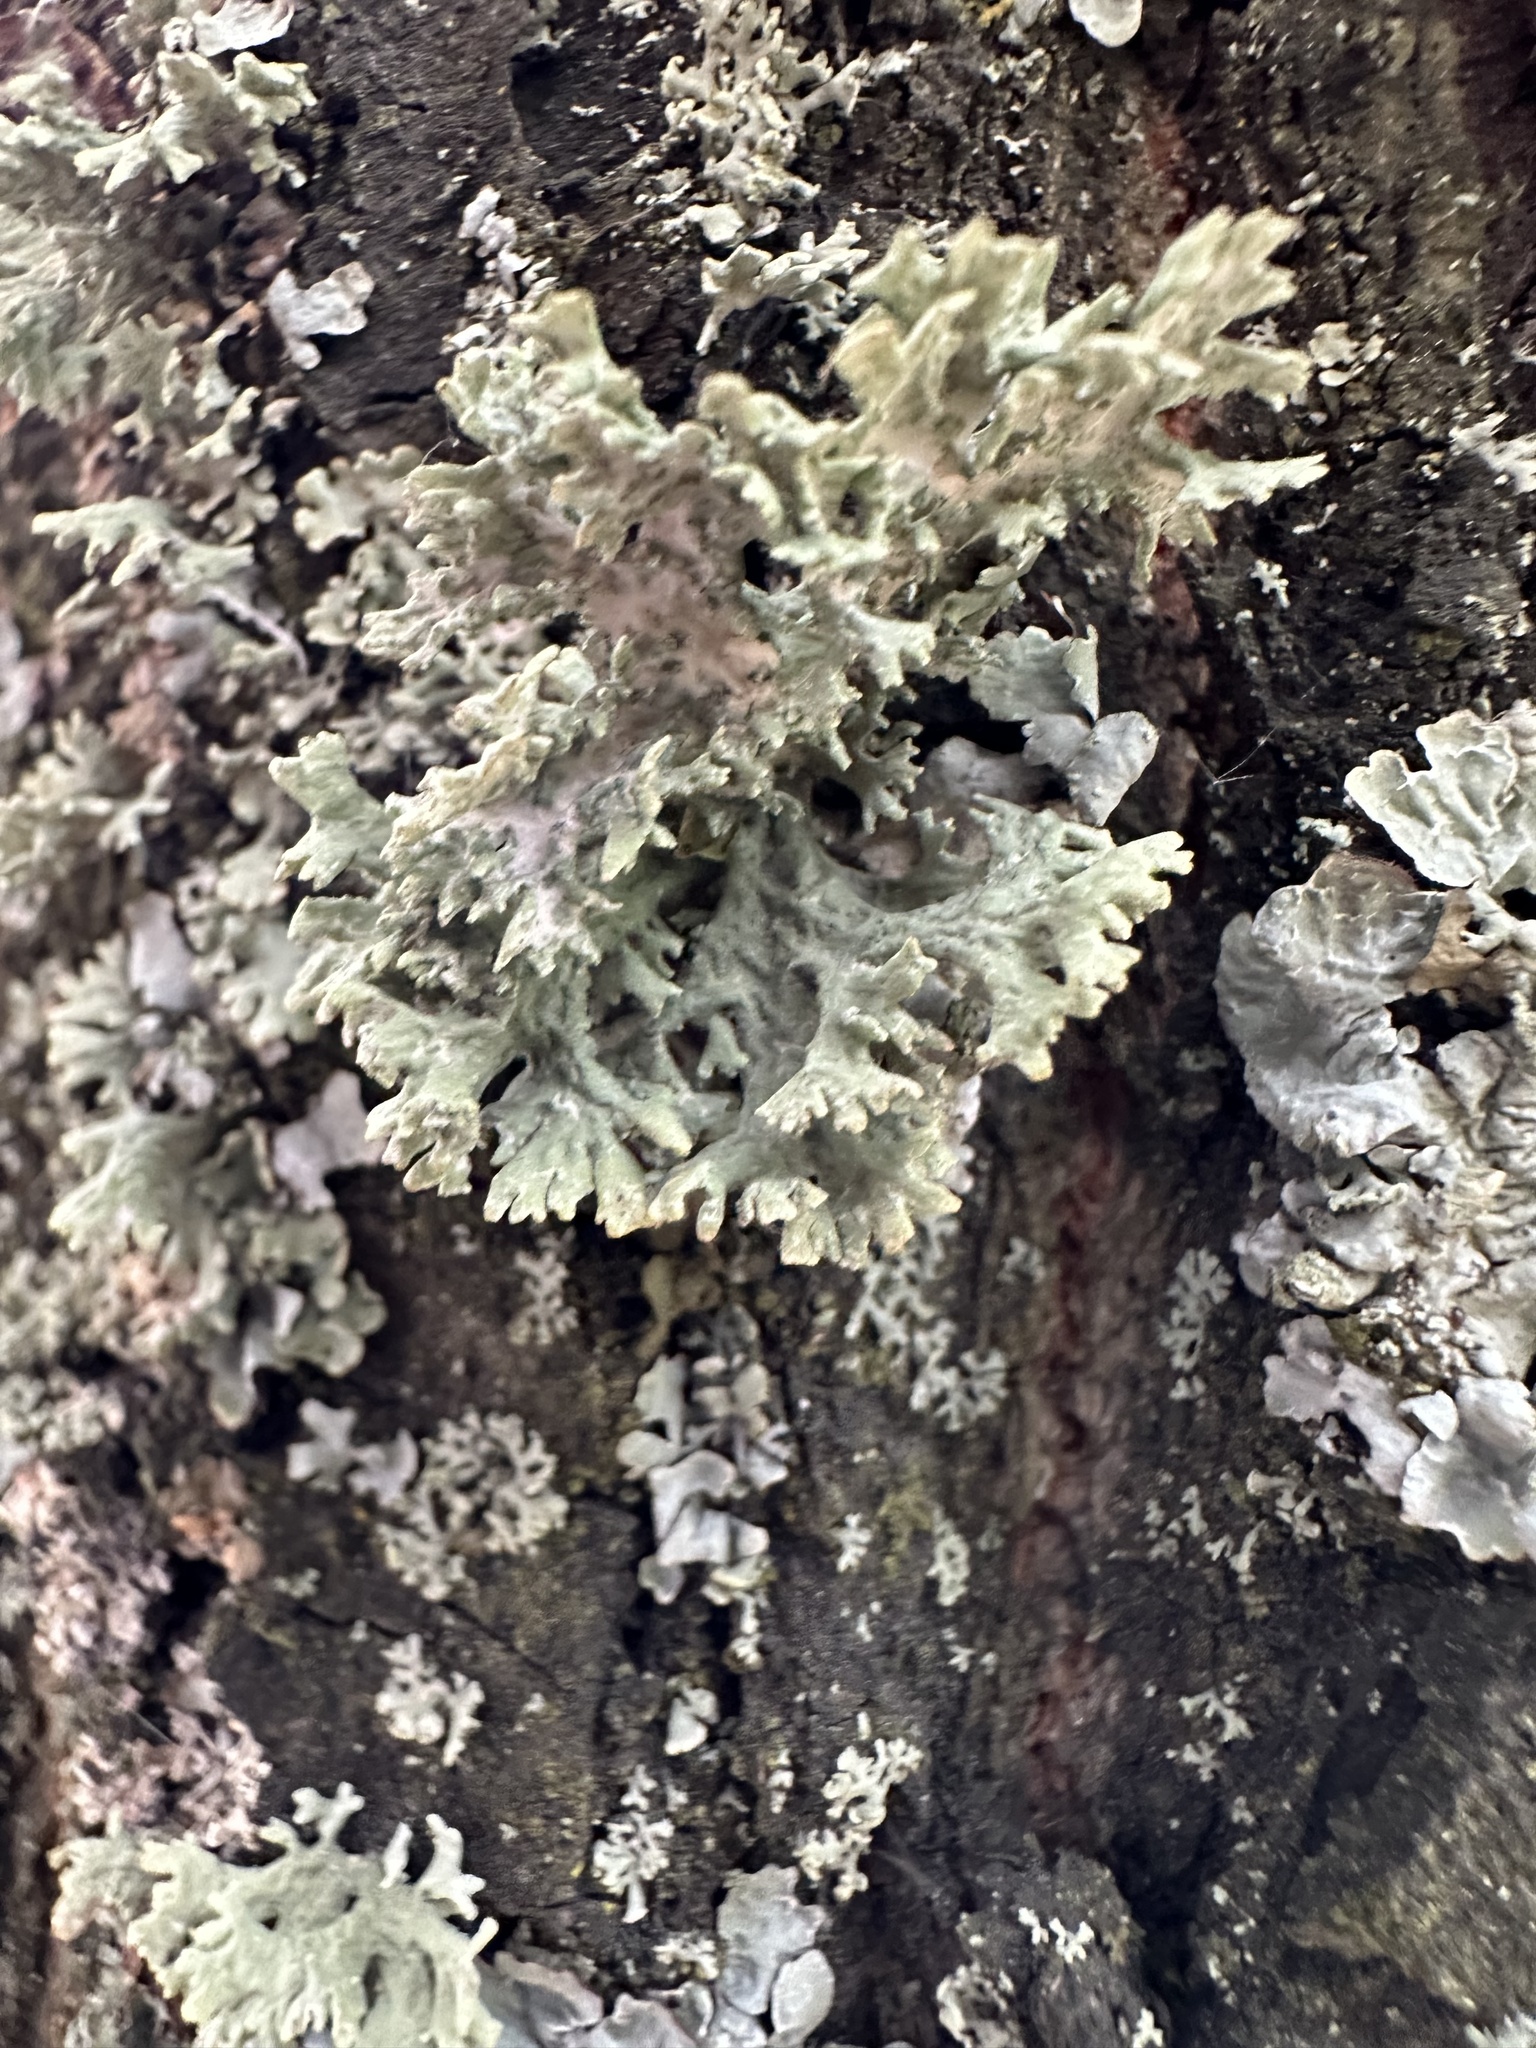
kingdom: Fungi
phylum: Ascomycota
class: Lecanoromycetes
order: Lecanorales
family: Parmeliaceae
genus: Evernia
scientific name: Evernia prunastri
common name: Oak moss
